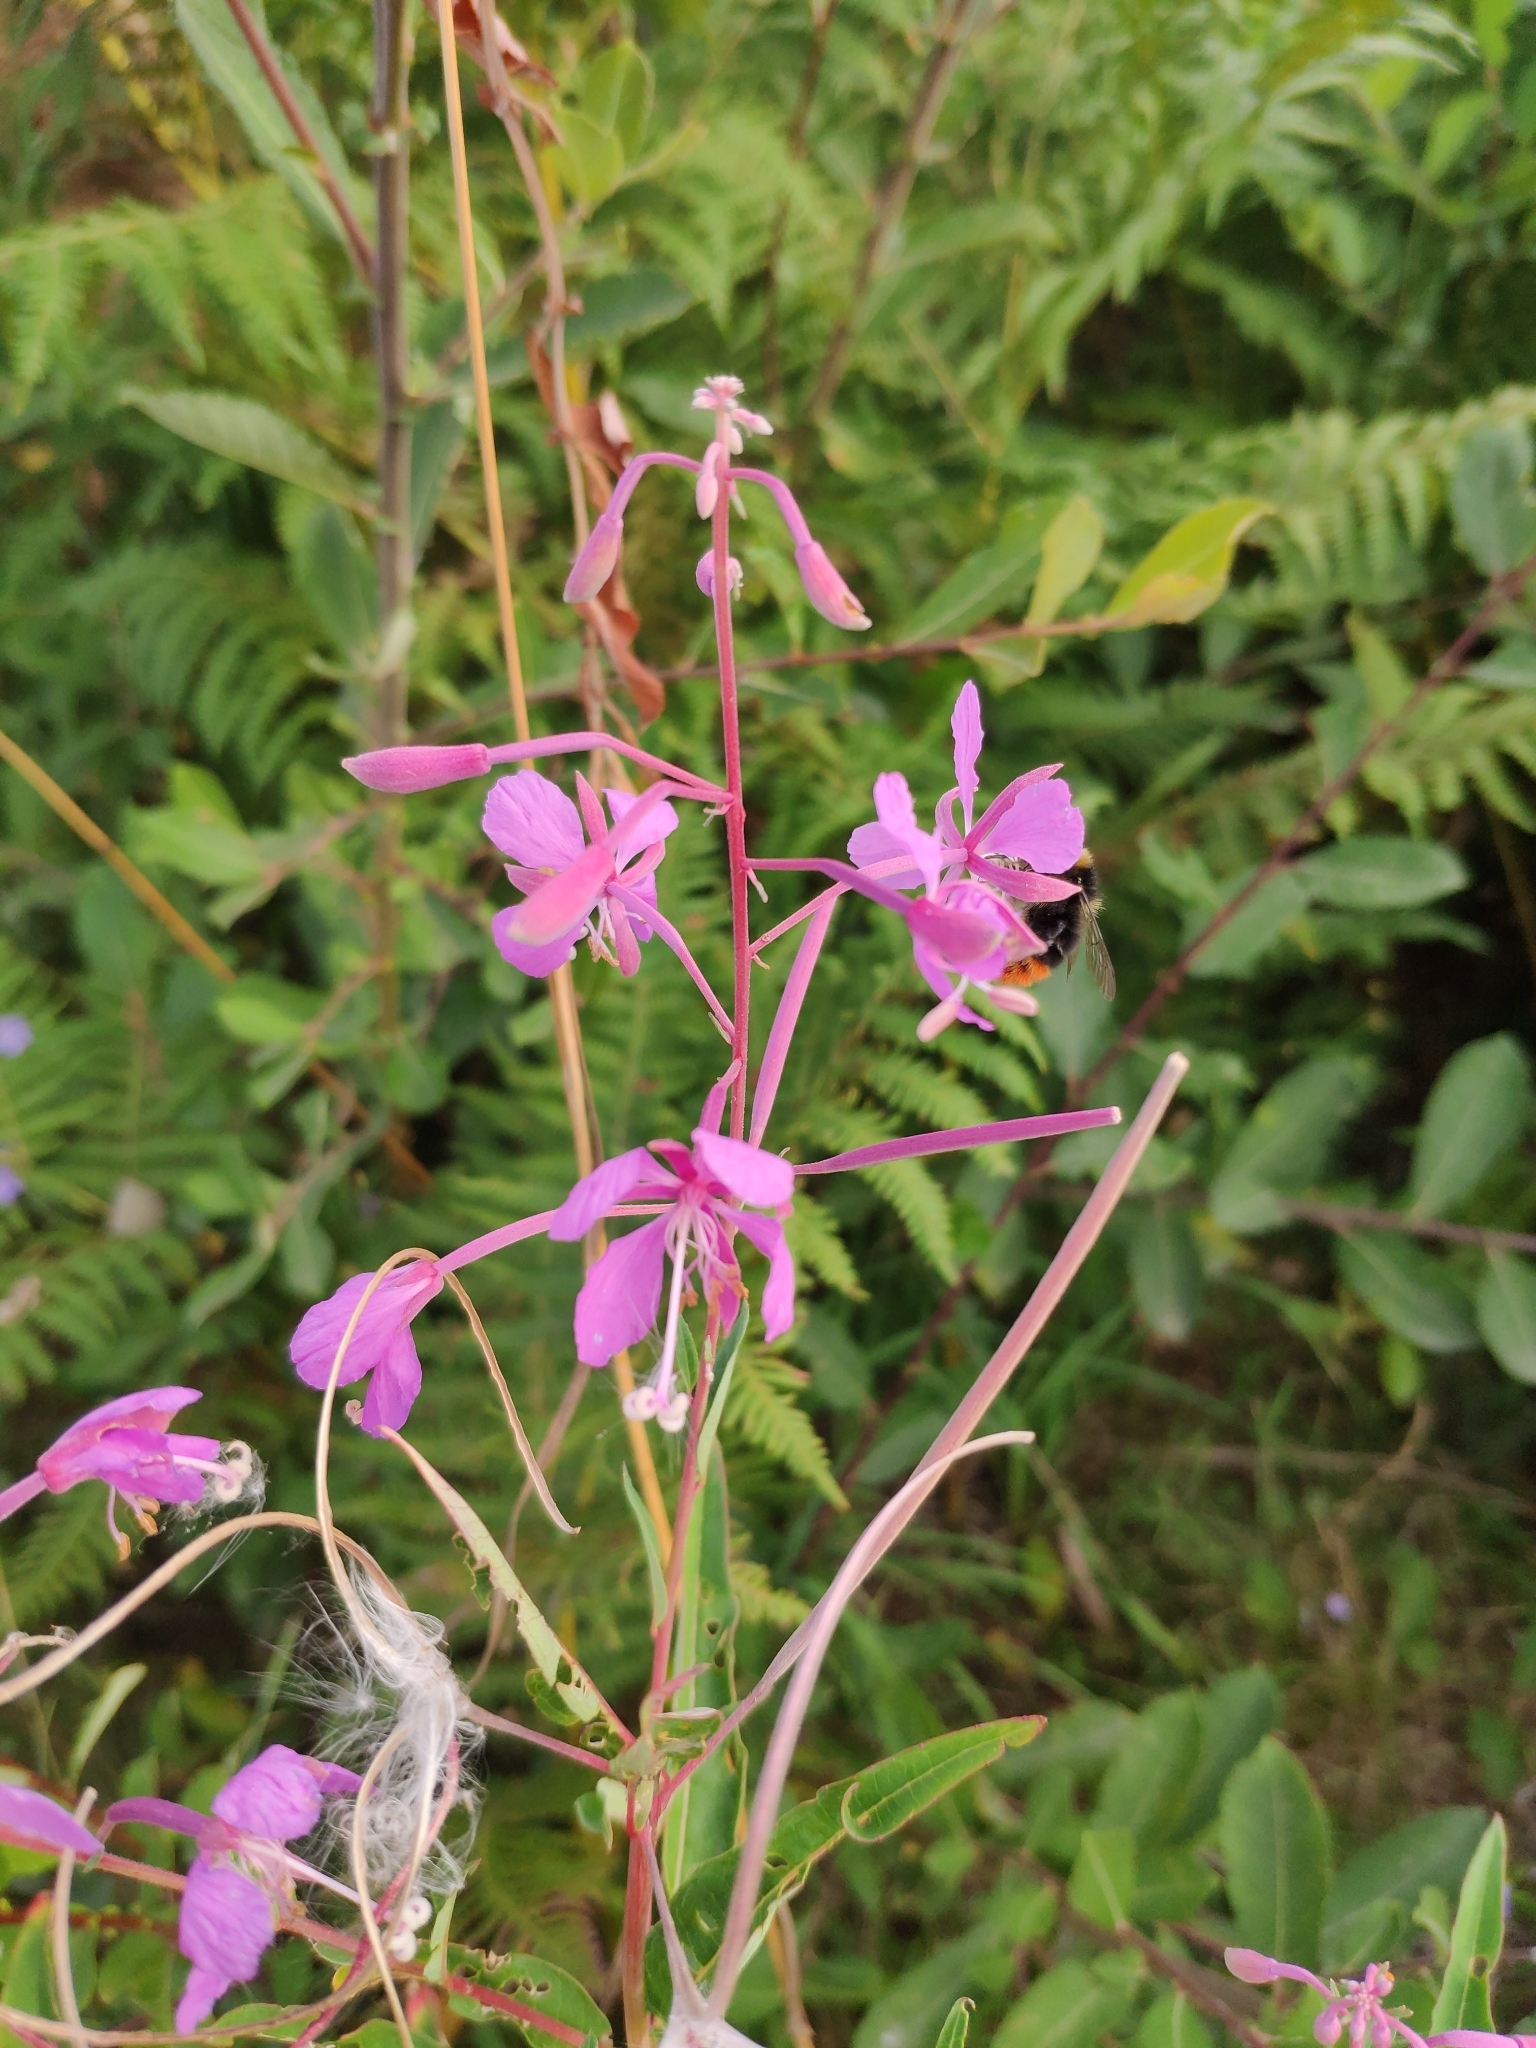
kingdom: Plantae
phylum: Tracheophyta
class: Magnoliopsida
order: Myrtales
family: Onagraceae
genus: Chamaenerion
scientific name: Chamaenerion angustifolium
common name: Fireweed
